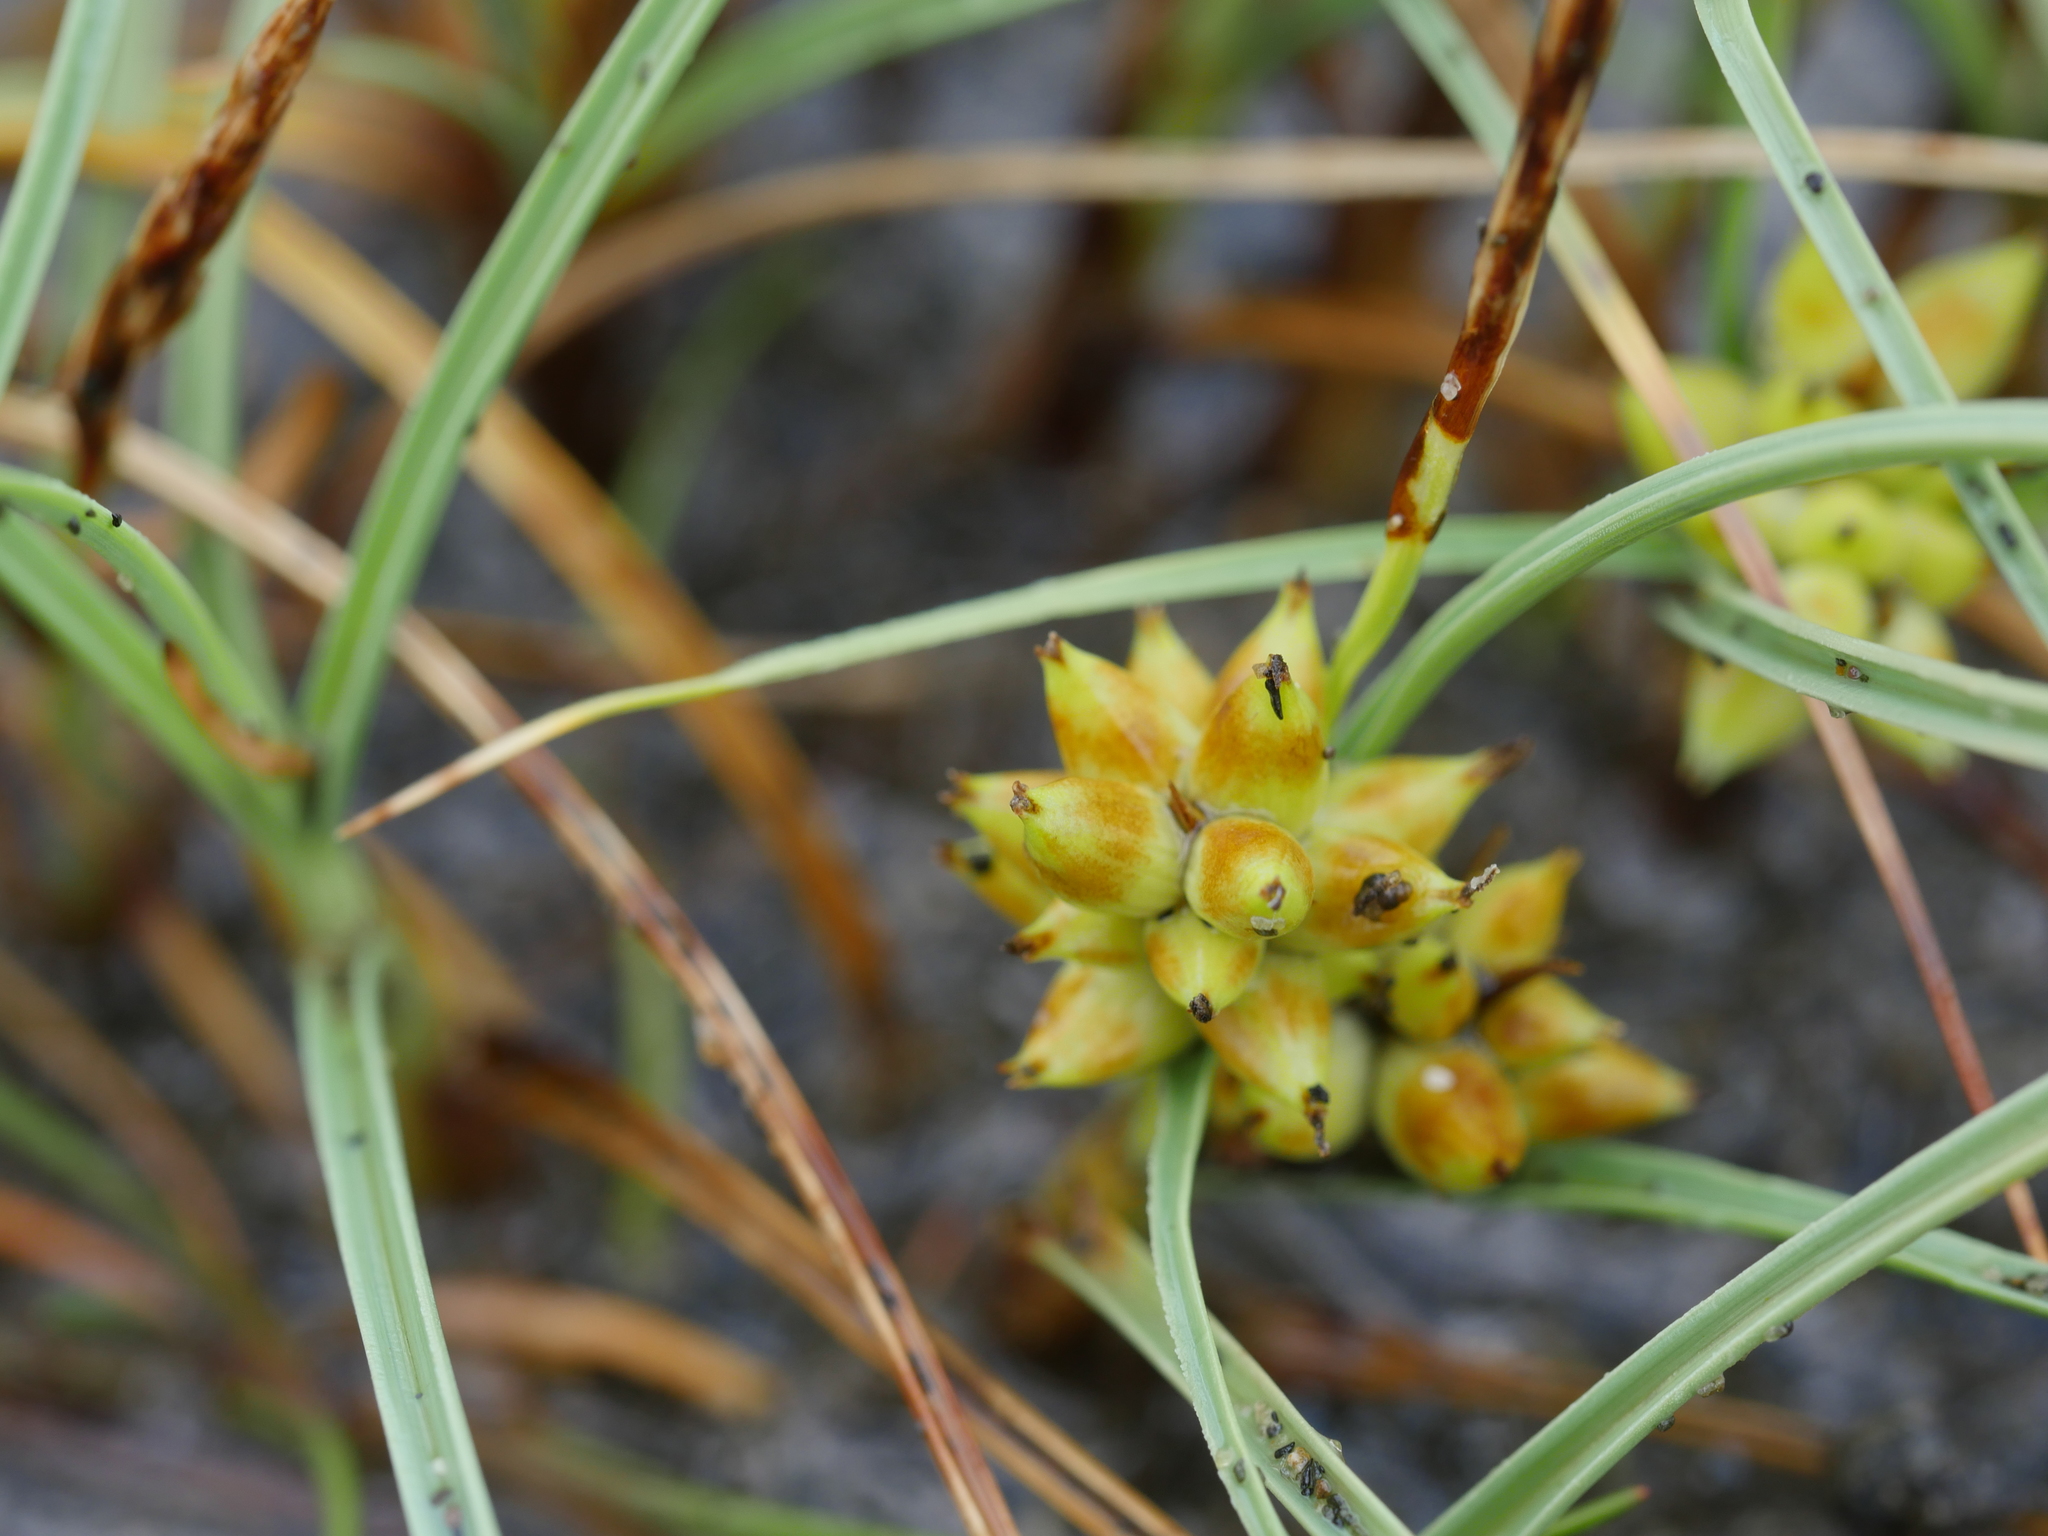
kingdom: Plantae
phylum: Tracheophyta
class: Liliopsida
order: Poales
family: Cyperaceae
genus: Carex
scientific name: Carex pumila
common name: Dwarf sedge
